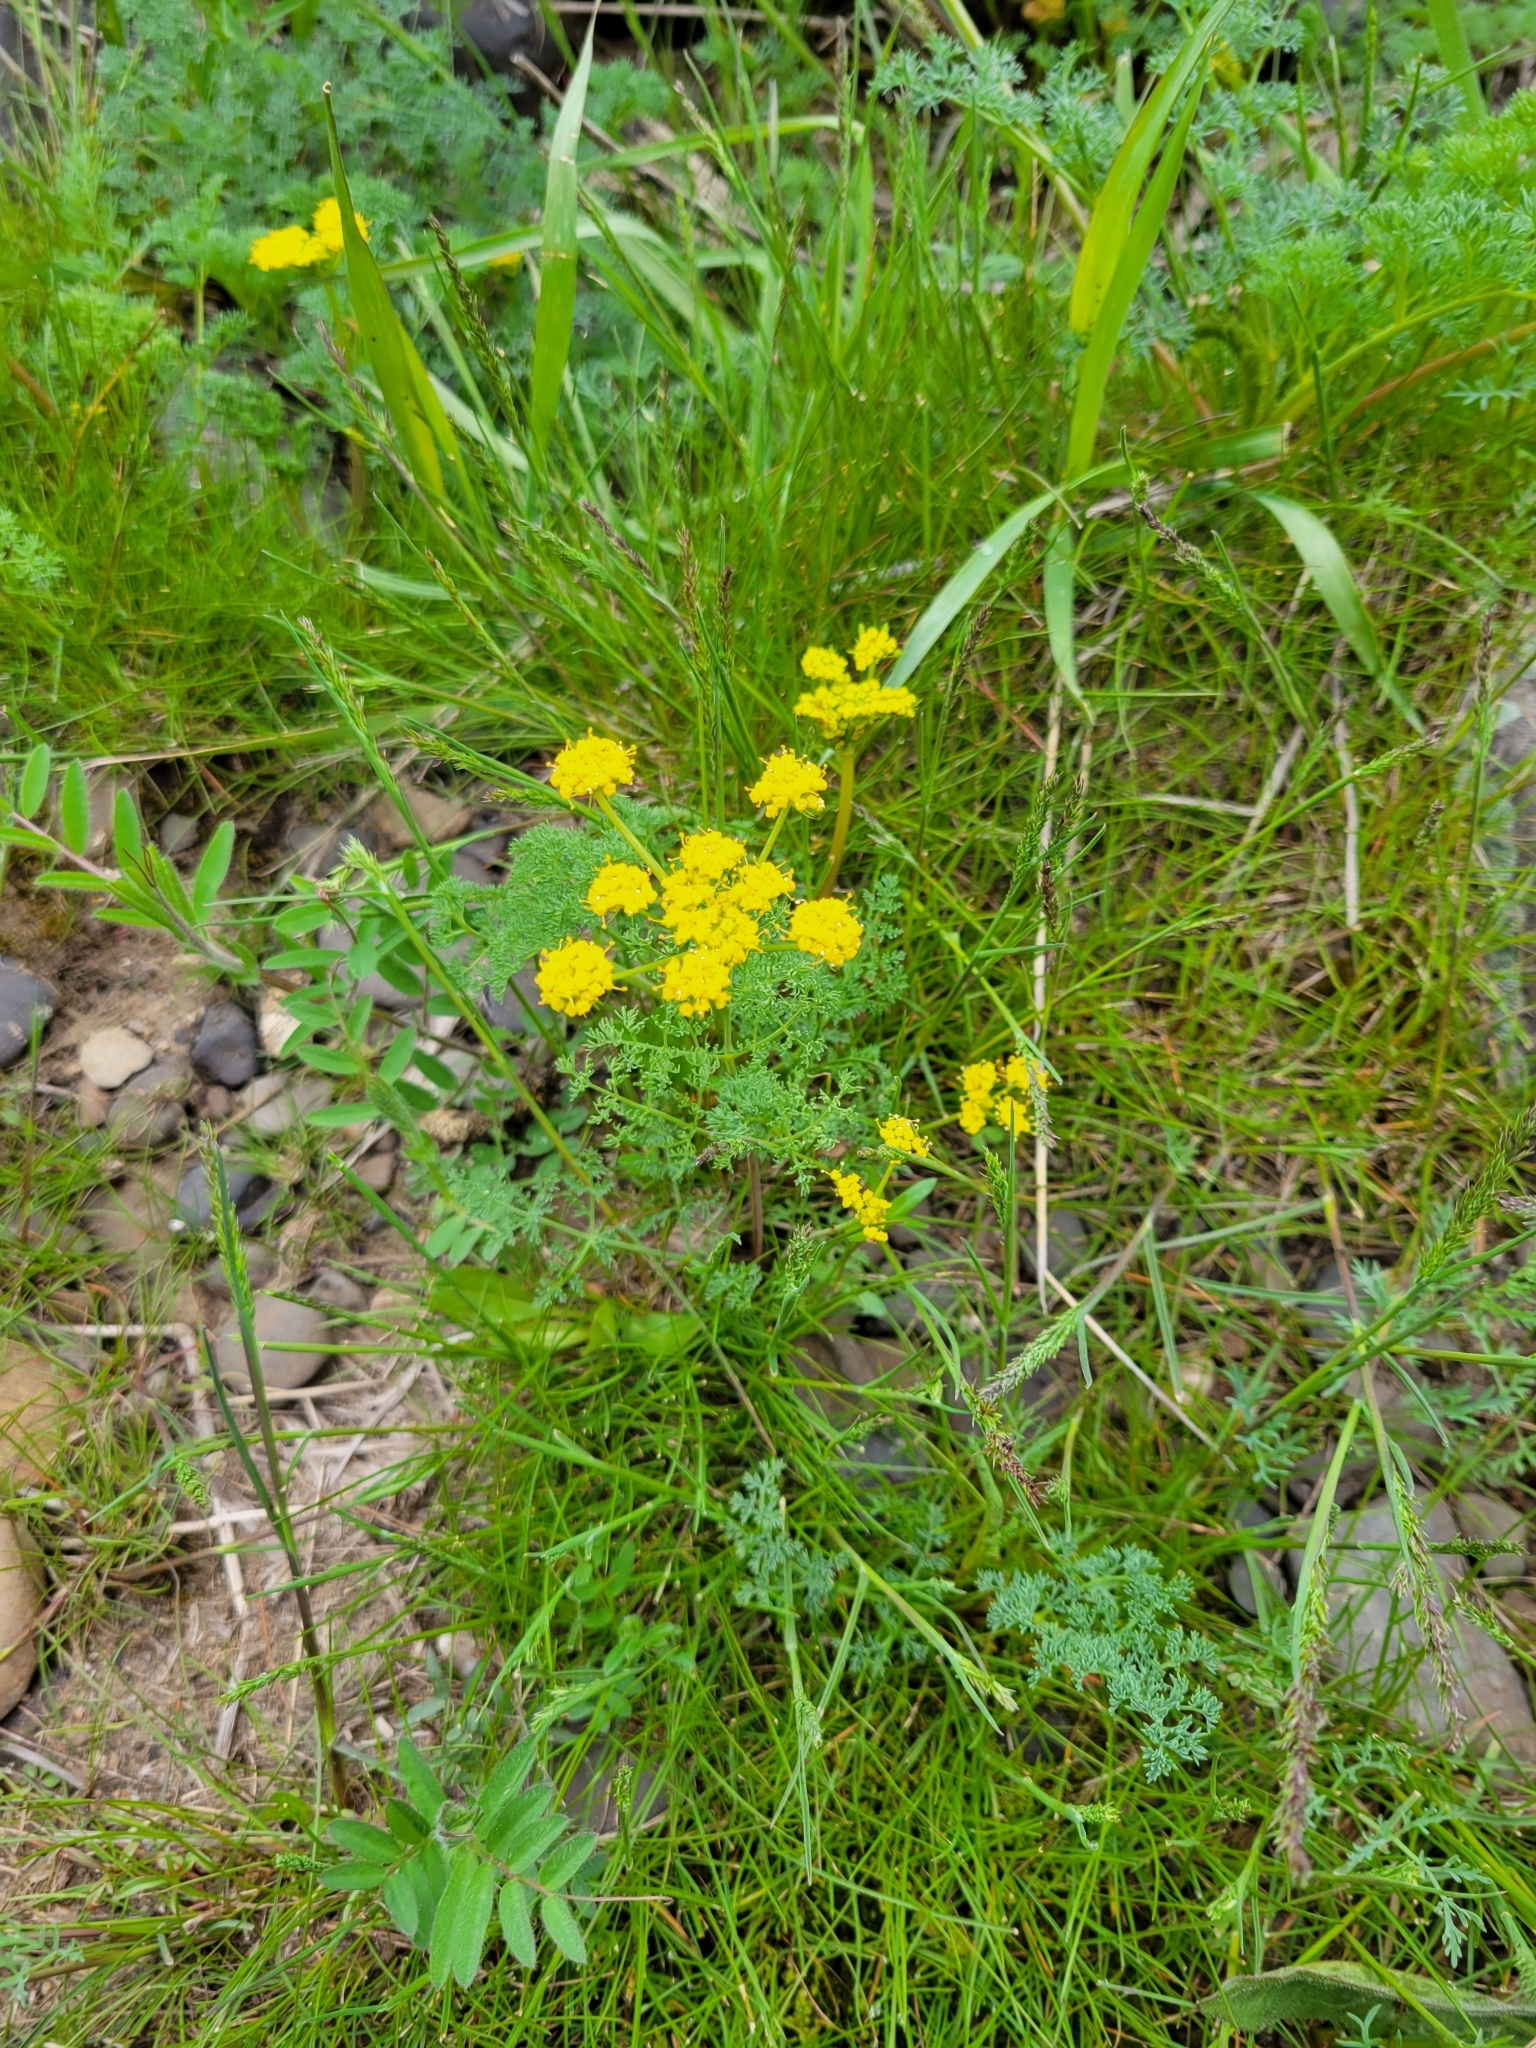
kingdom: Plantae
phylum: Tracheophyta
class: Magnoliopsida
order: Apiales
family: Apiaceae
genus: Lomatium
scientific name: Lomatium papilioniferum
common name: Butterfly lomatium
